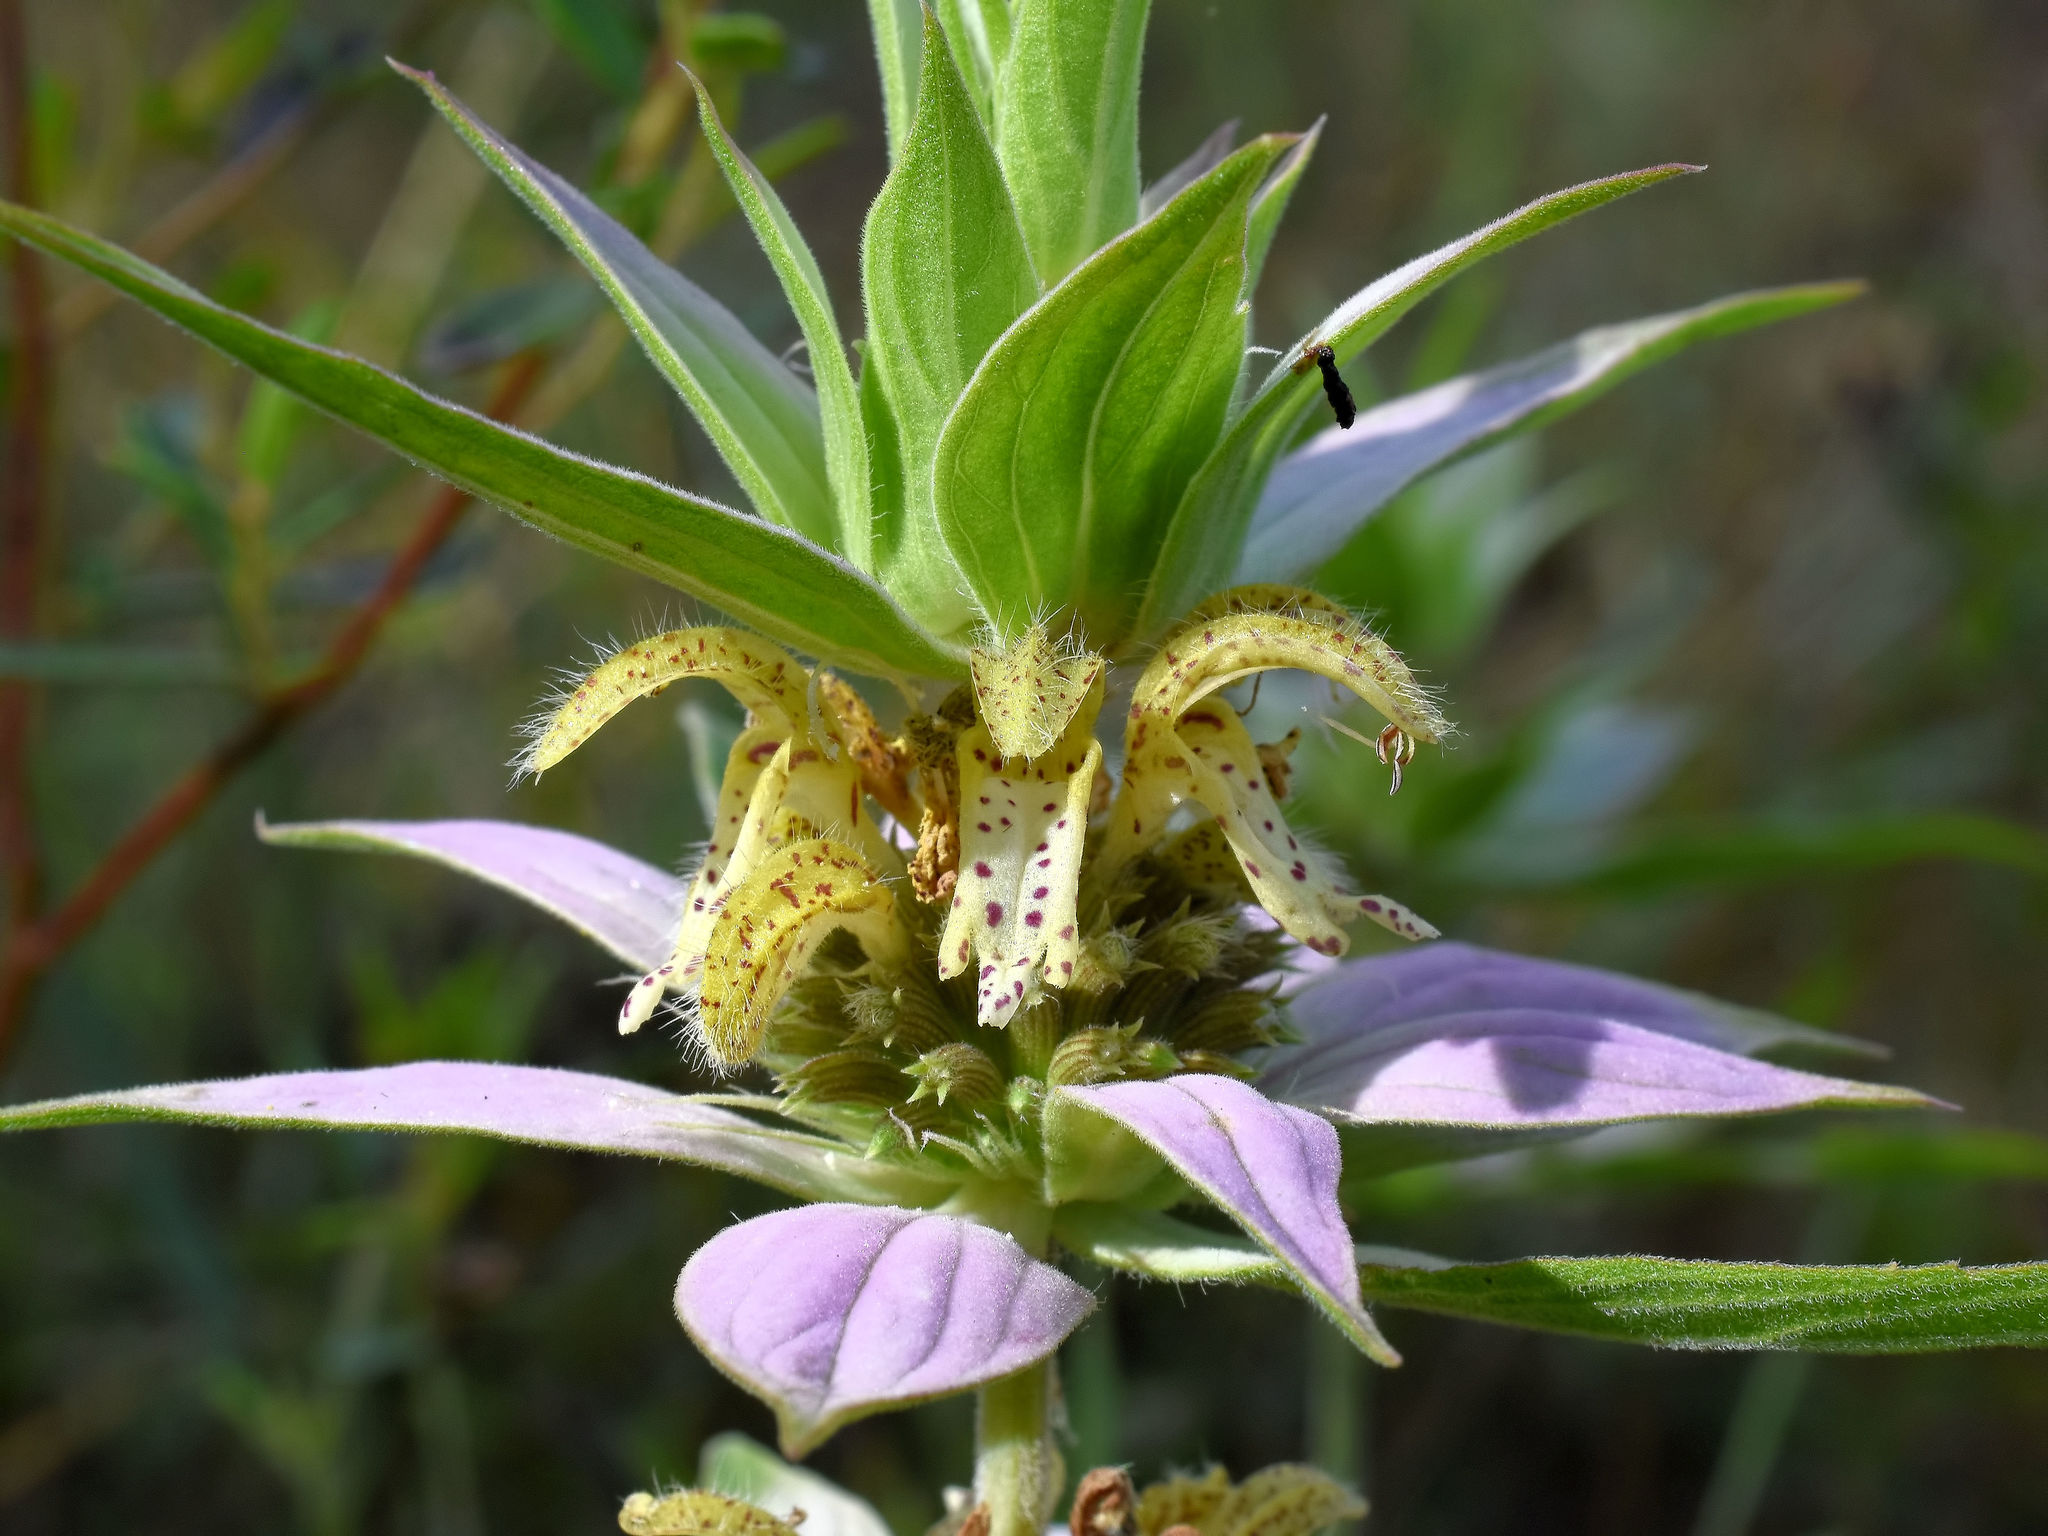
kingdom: Plantae
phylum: Tracheophyta
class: Magnoliopsida
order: Lamiales
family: Lamiaceae
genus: Monarda
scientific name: Monarda punctata
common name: Dotted monarda
